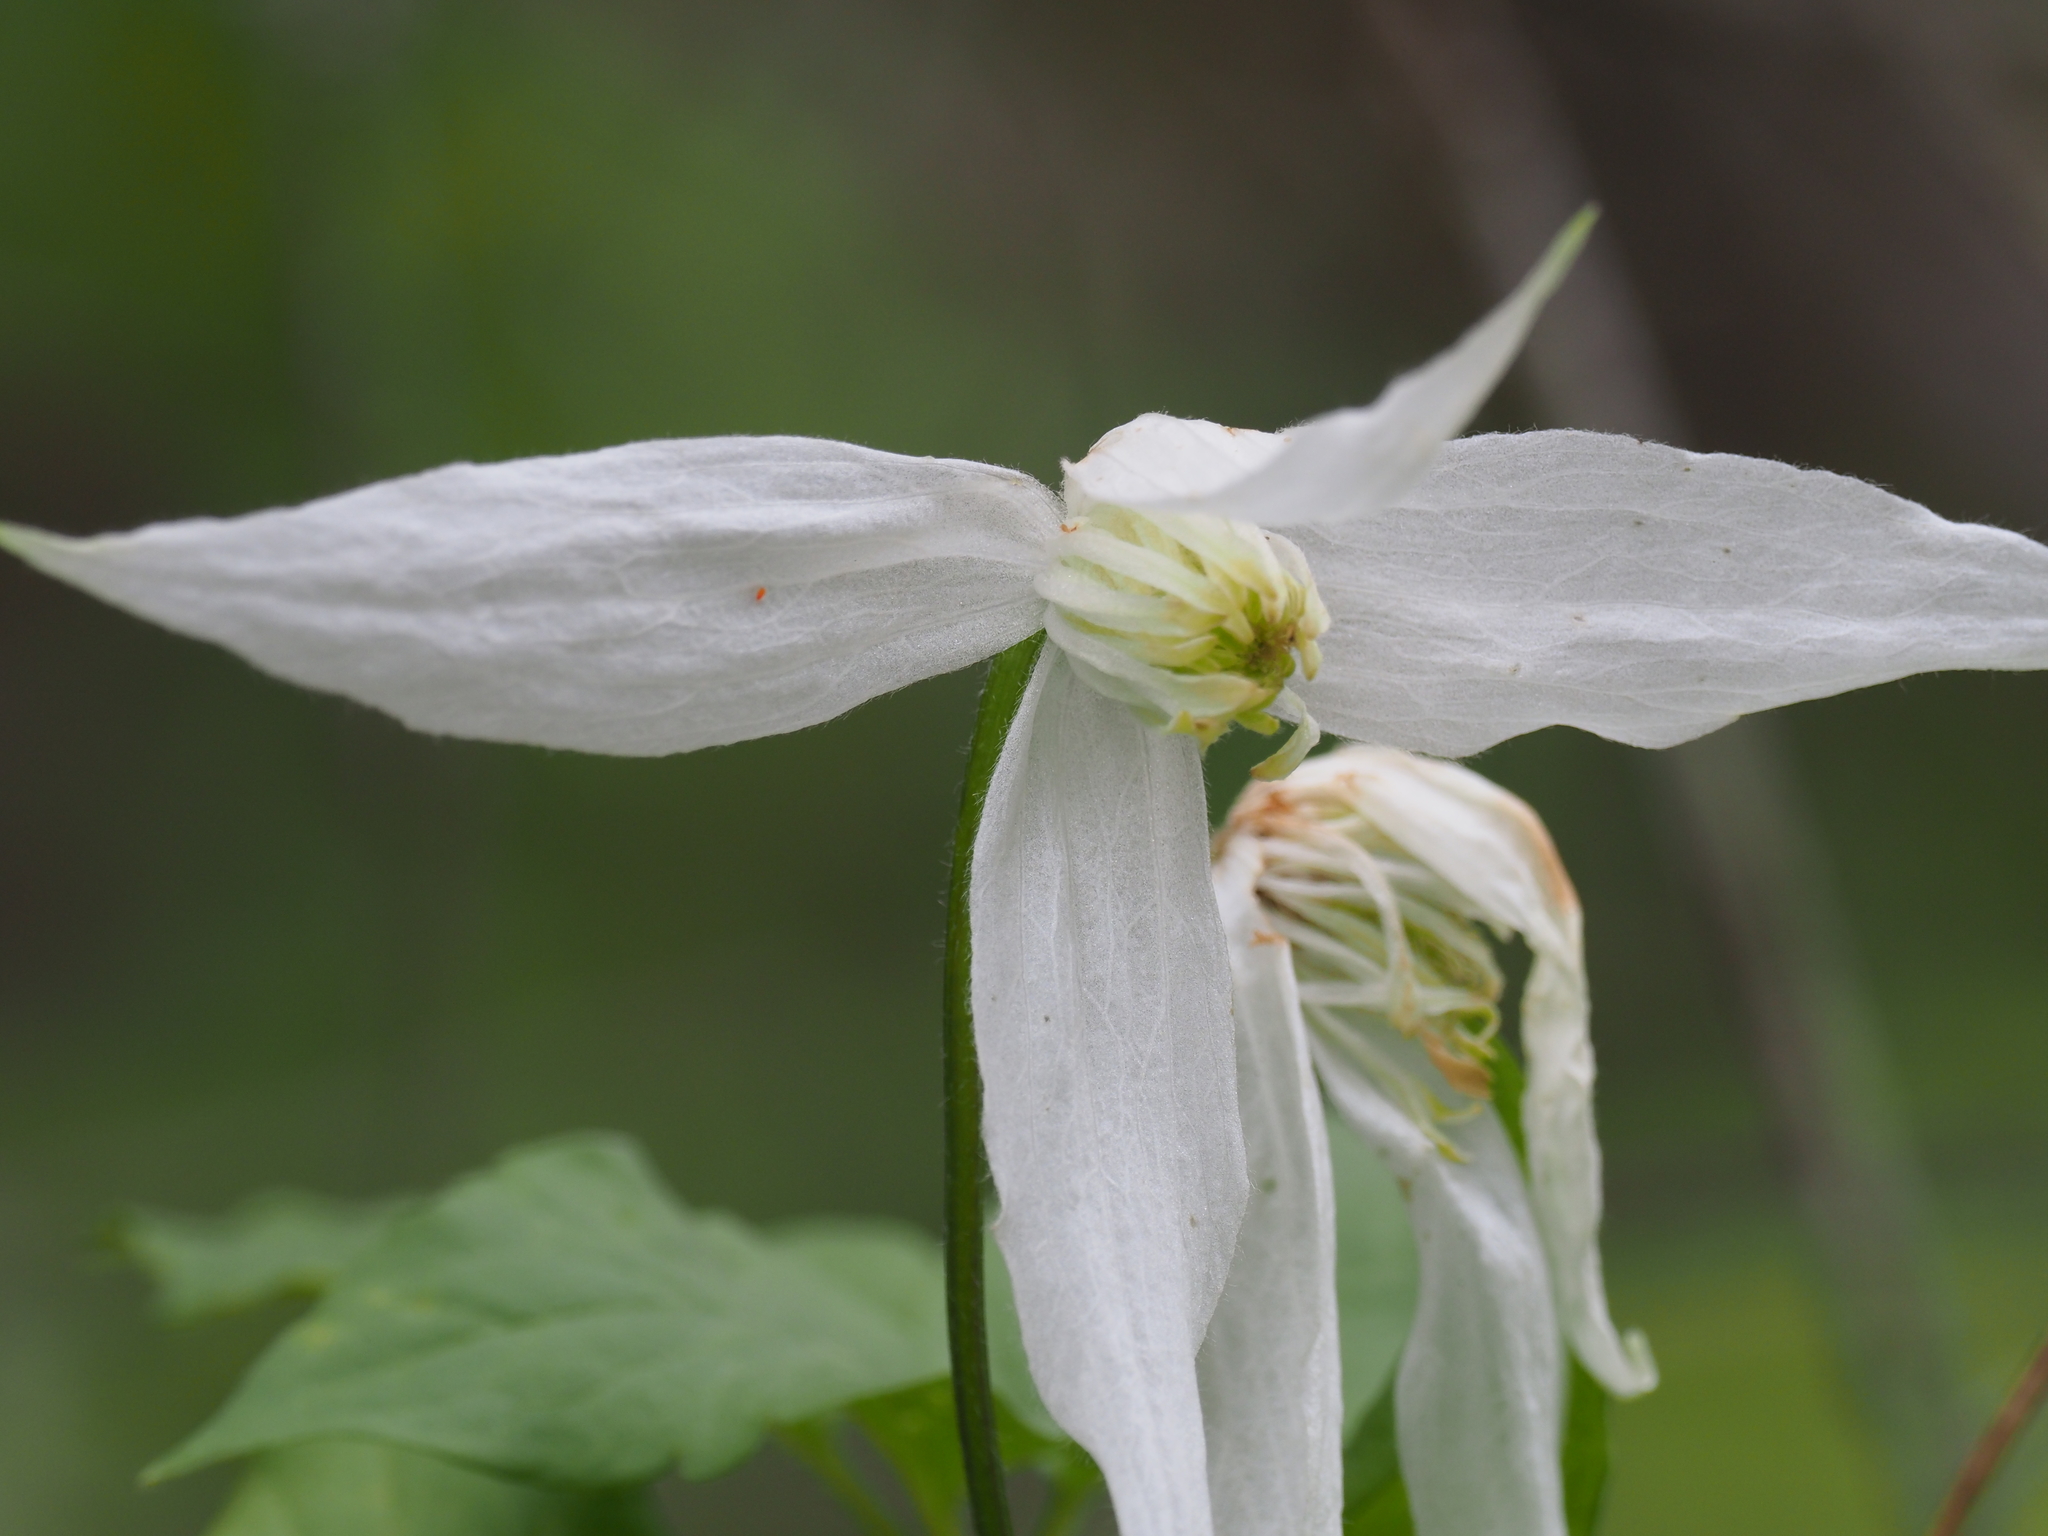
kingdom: Plantae
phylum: Tracheophyta
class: Magnoliopsida
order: Ranunculales
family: Ranunculaceae
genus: Clematis
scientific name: Clematis occidentalis
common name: Purple clematis
